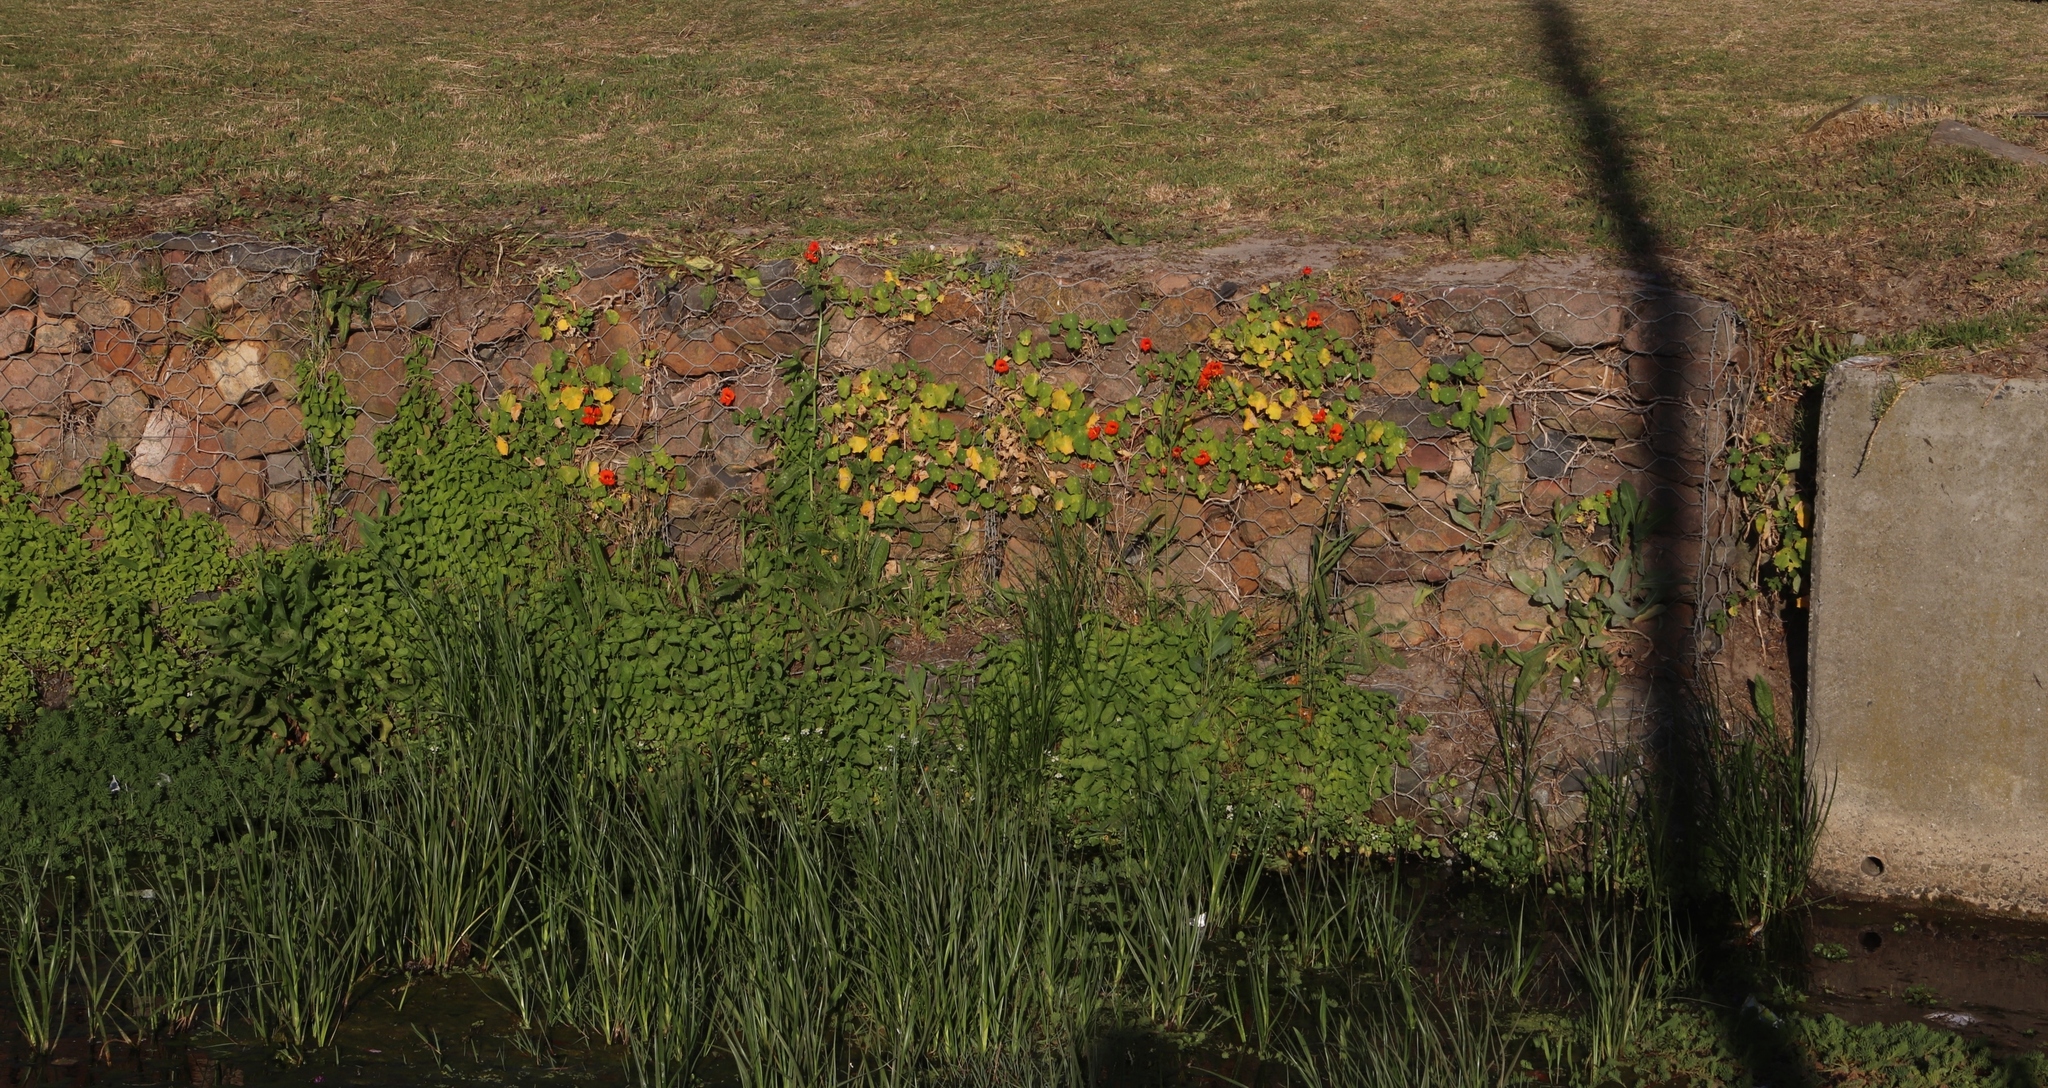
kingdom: Plantae
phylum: Tracheophyta
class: Magnoliopsida
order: Brassicales
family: Tropaeolaceae
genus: Tropaeolum
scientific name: Tropaeolum majus
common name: Nasturtium
